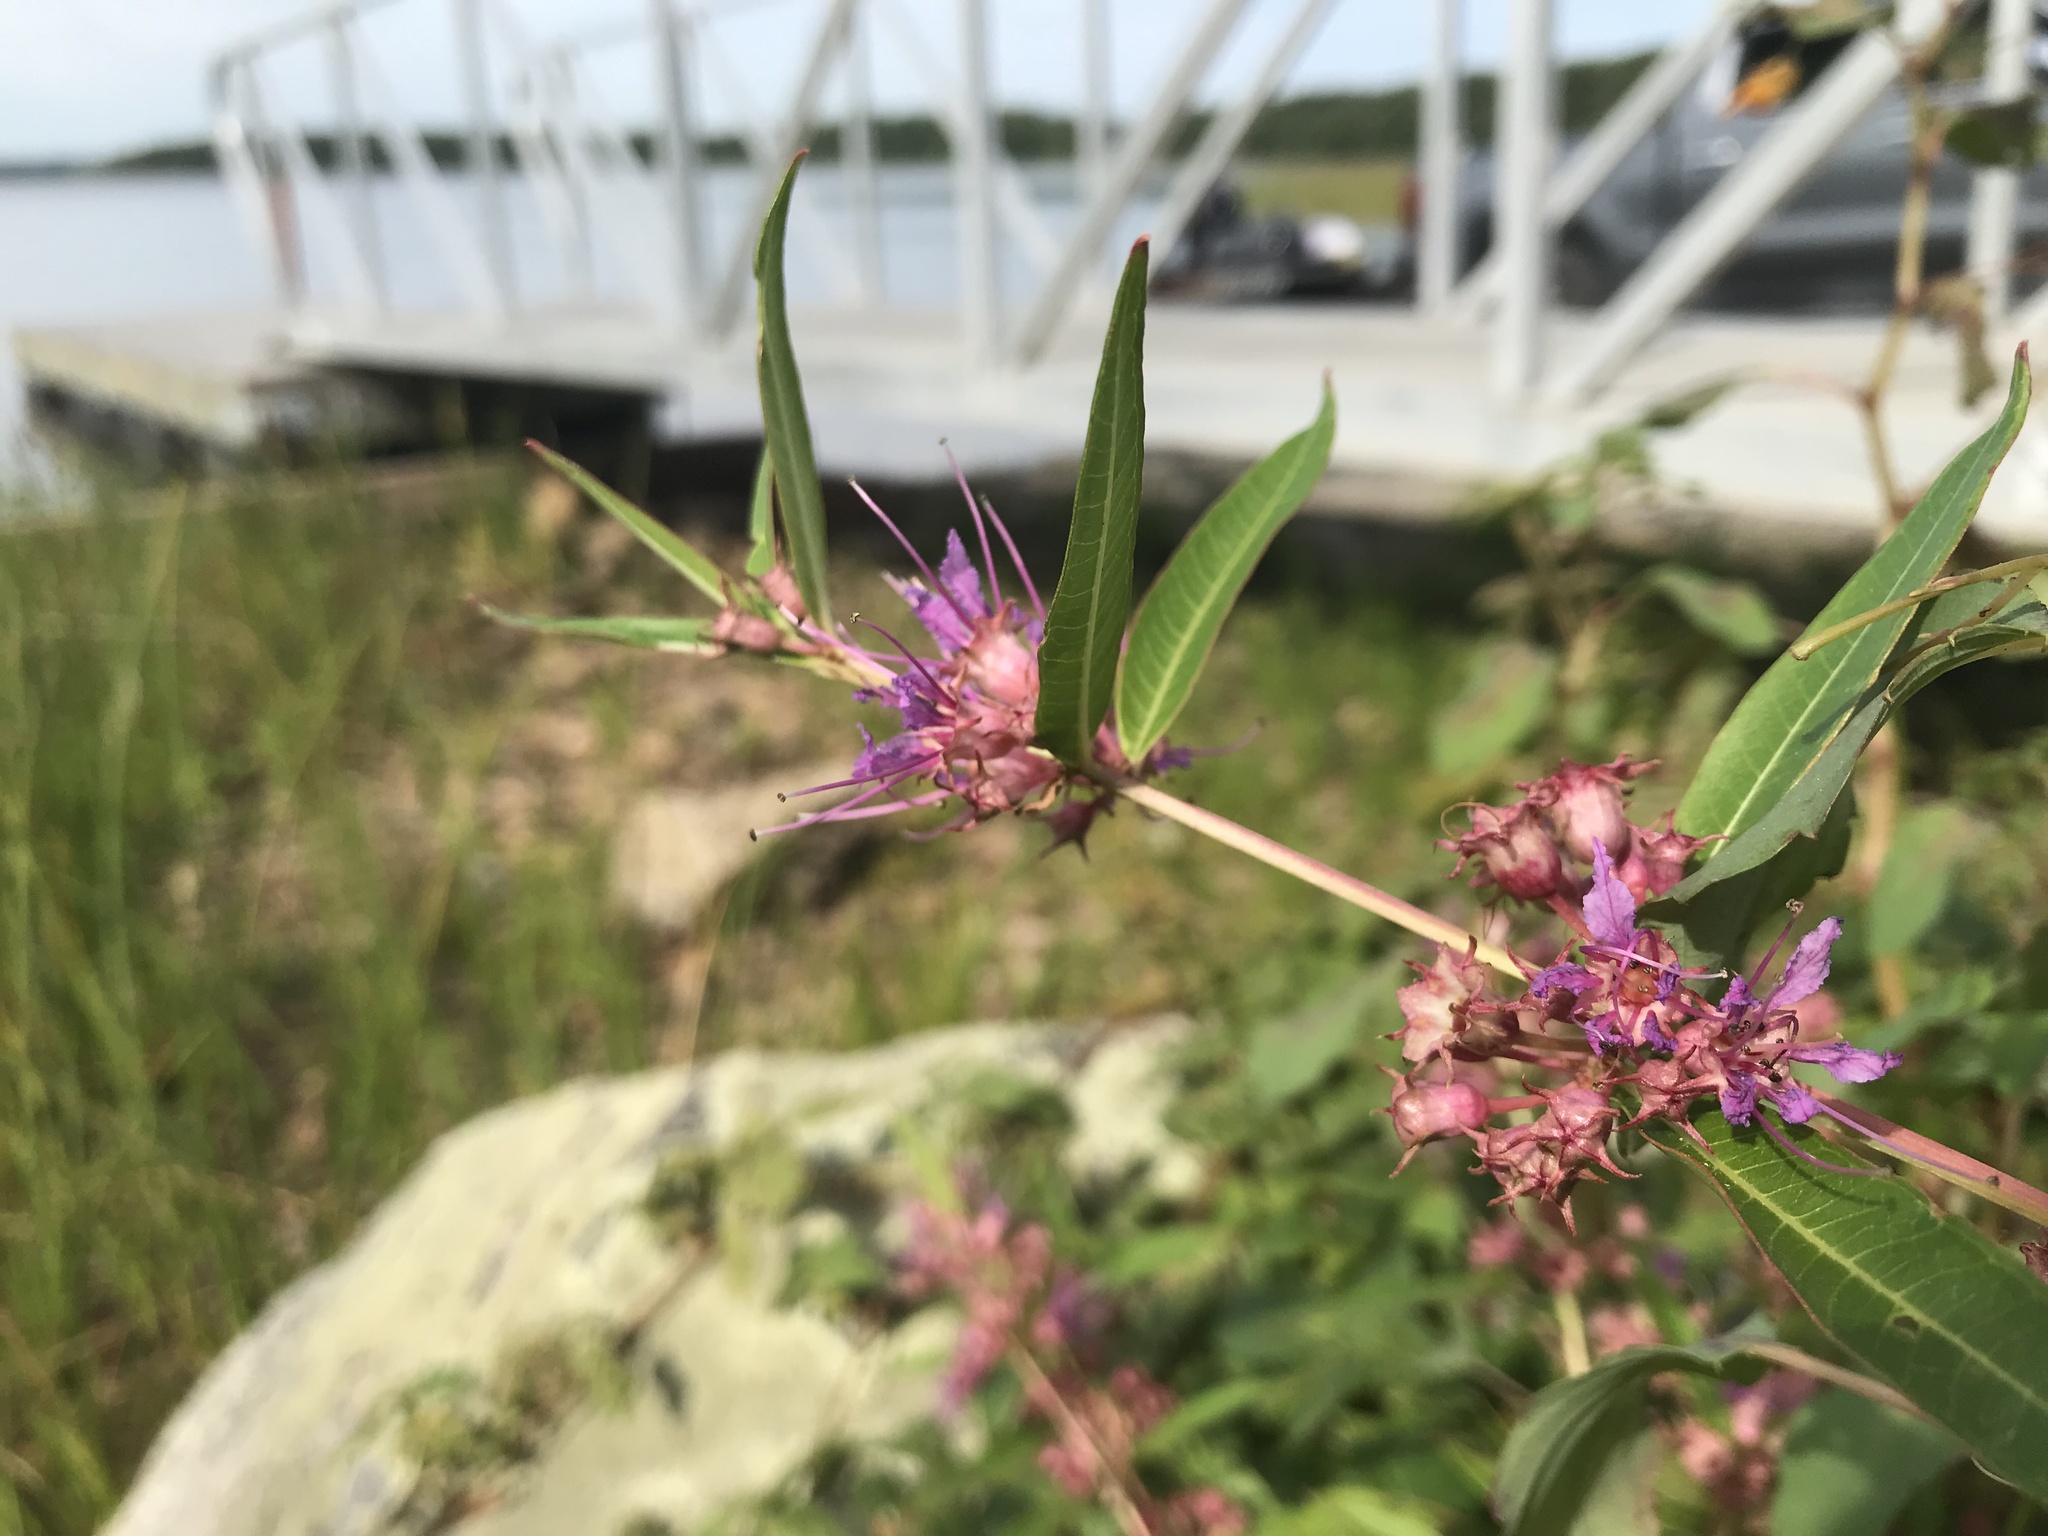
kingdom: Plantae
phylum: Tracheophyta
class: Magnoliopsida
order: Myrtales
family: Lythraceae
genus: Decodon
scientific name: Decodon verticillatus
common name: Hairy swamp loosestrife
